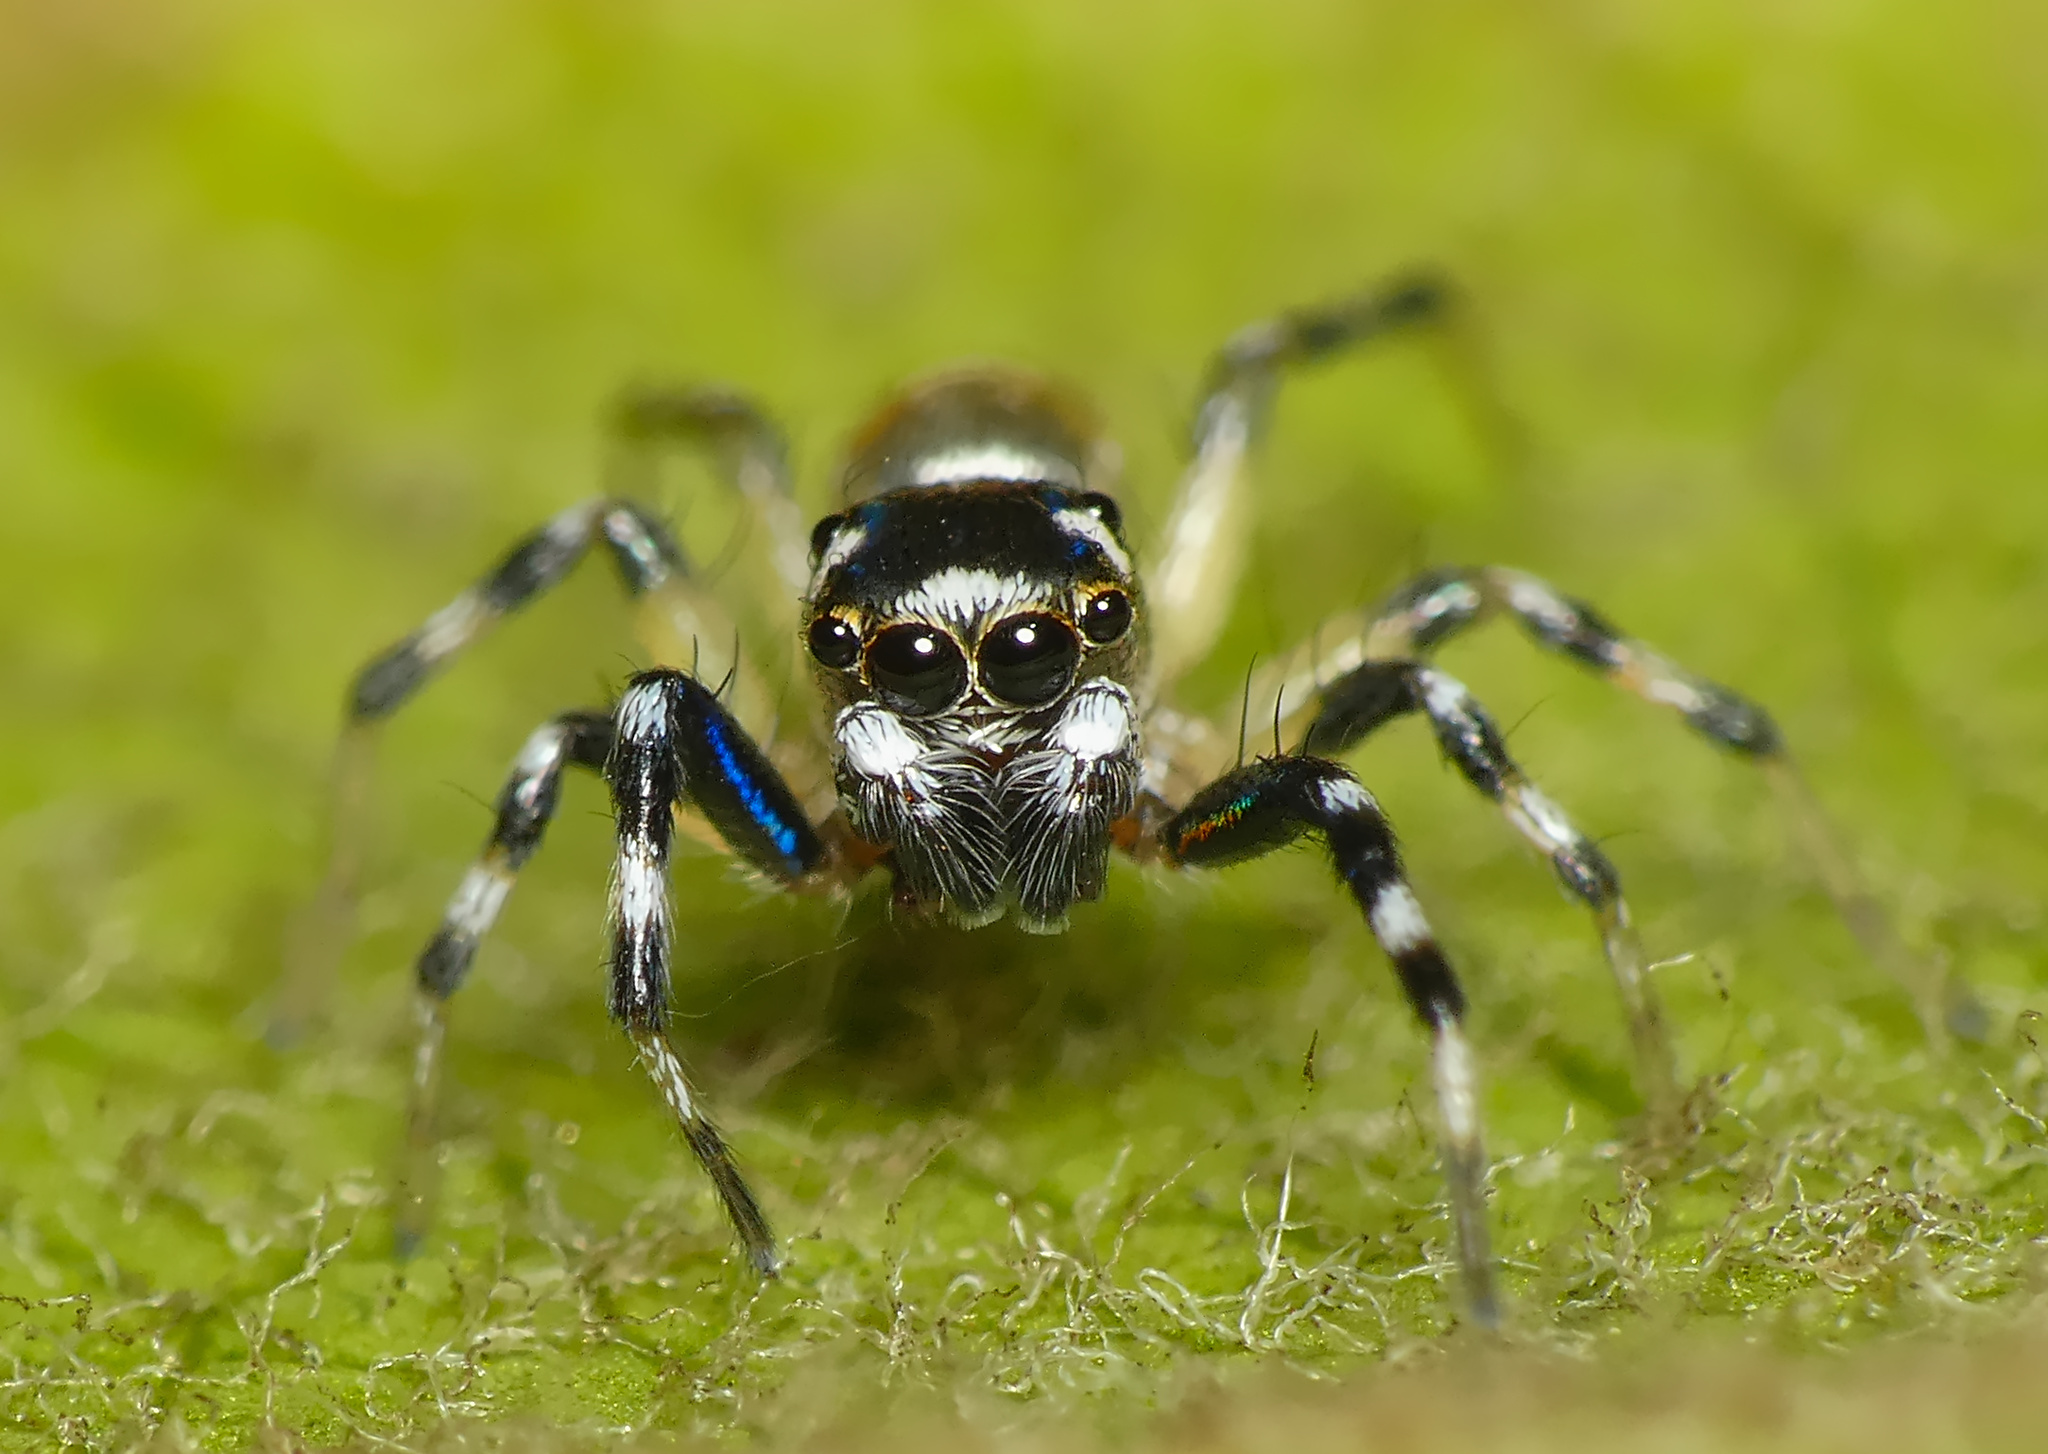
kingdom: Animalia
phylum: Arthropoda
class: Arachnida
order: Araneae
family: Salticidae
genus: Phintella
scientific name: Phintella aequipes
